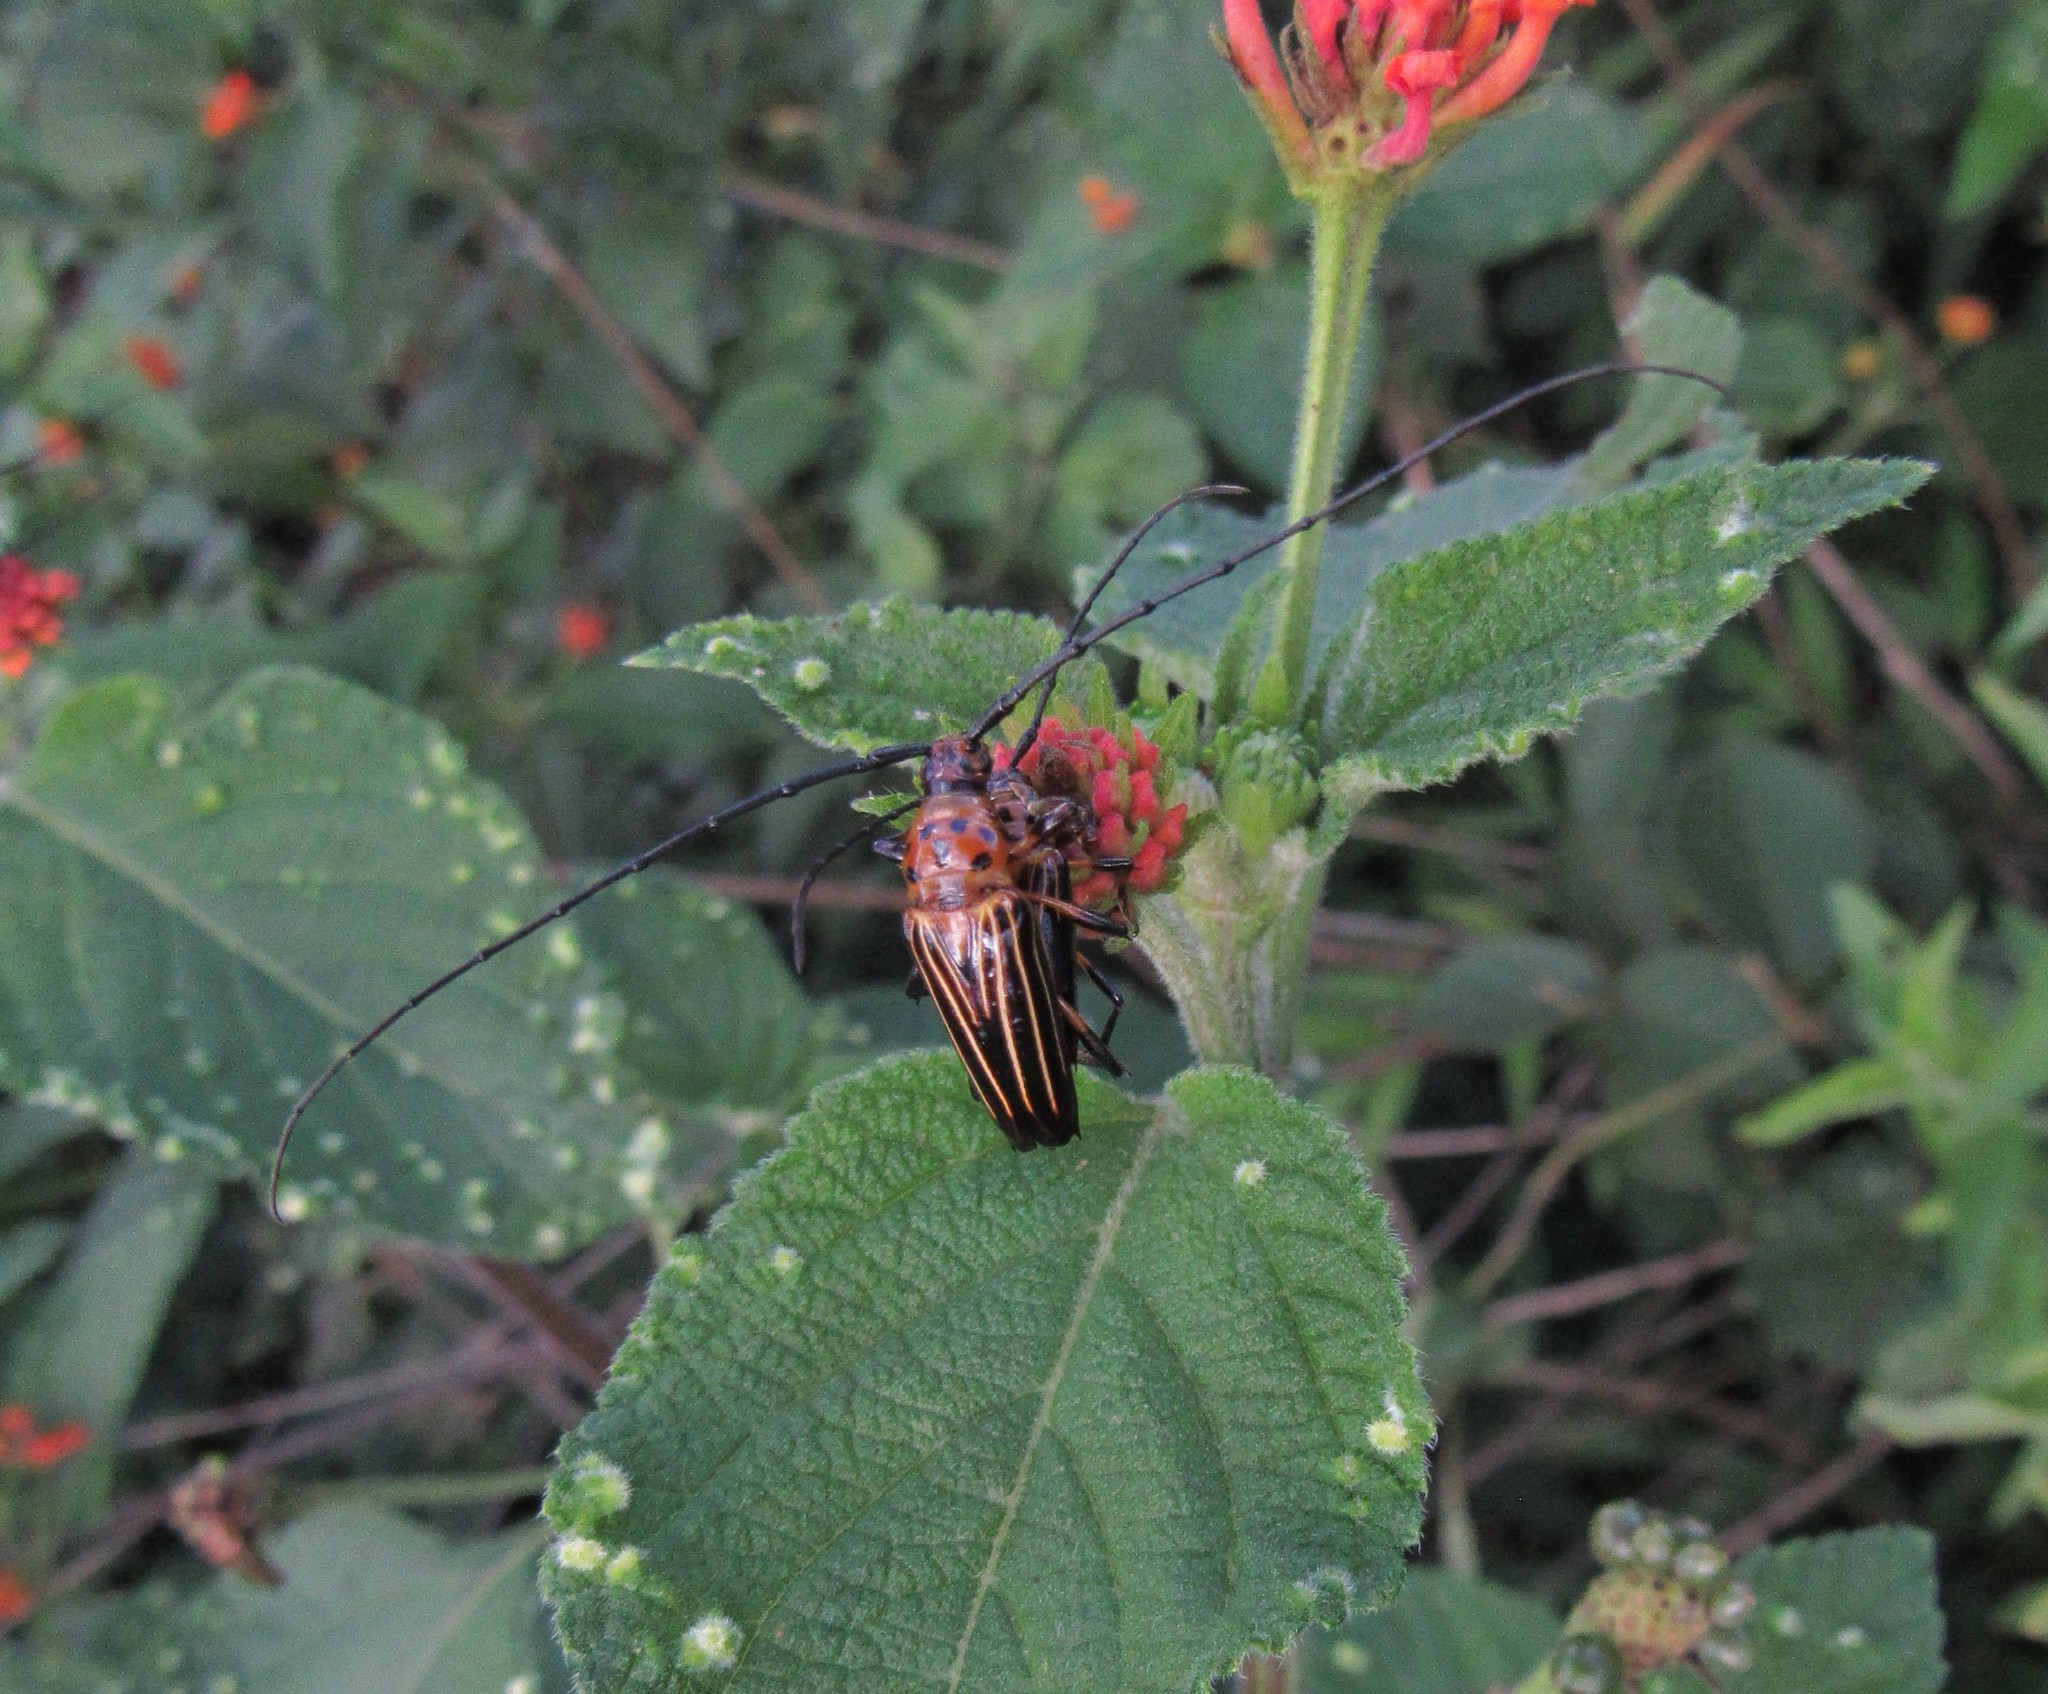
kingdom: Animalia
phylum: Arthropoda
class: Insecta
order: Coleoptera
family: Cerambycidae
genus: Oxymerus
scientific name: Oxymerus aculeatus
